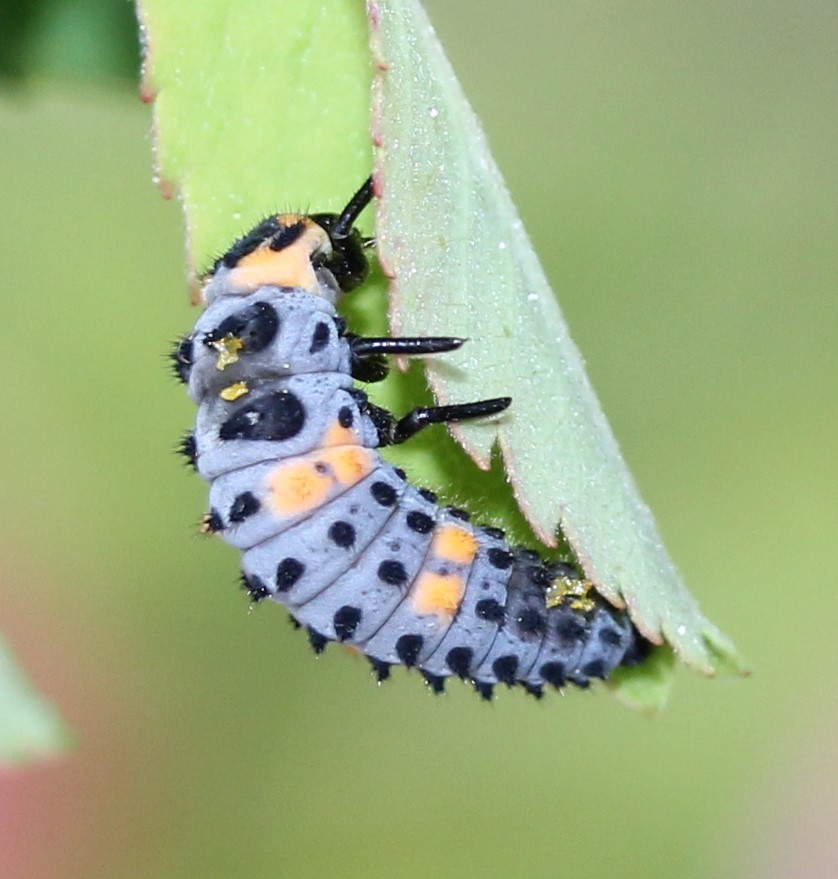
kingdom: Animalia
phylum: Arthropoda
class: Insecta
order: Coleoptera
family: Coccinellidae
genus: Coccinella
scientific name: Coccinella septempunctata
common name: Sevenspotted lady beetle
